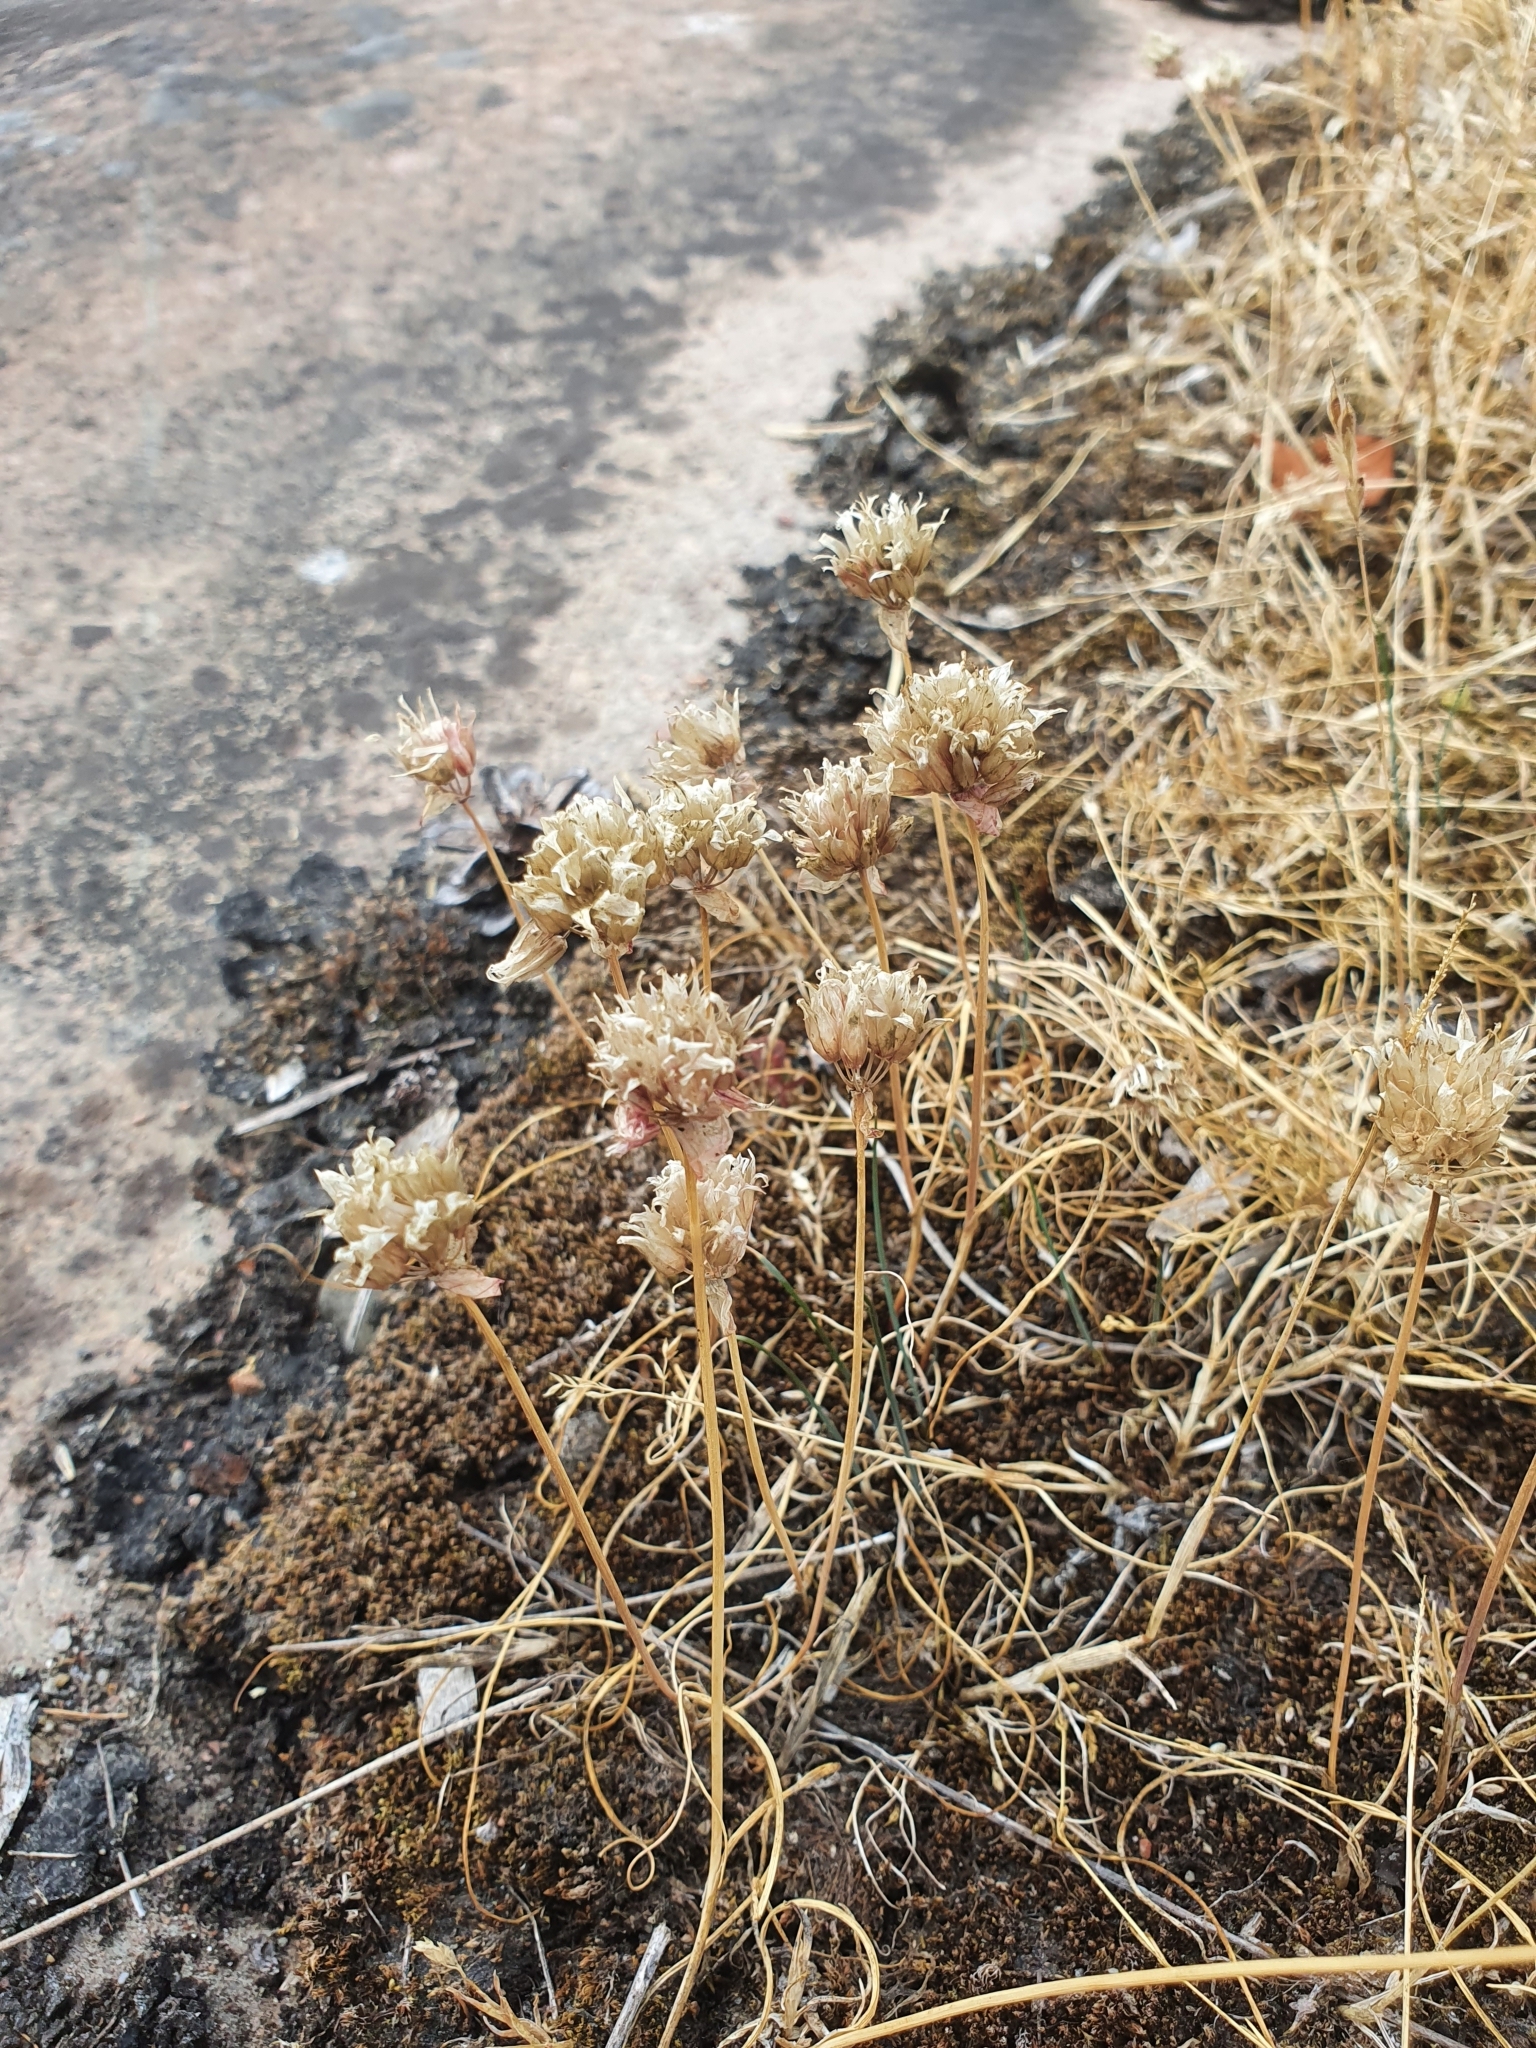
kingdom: Plantae
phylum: Tracheophyta
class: Liliopsida
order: Asparagales
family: Amaryllidaceae
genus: Allium
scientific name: Allium schoenoprasum
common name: Chives
